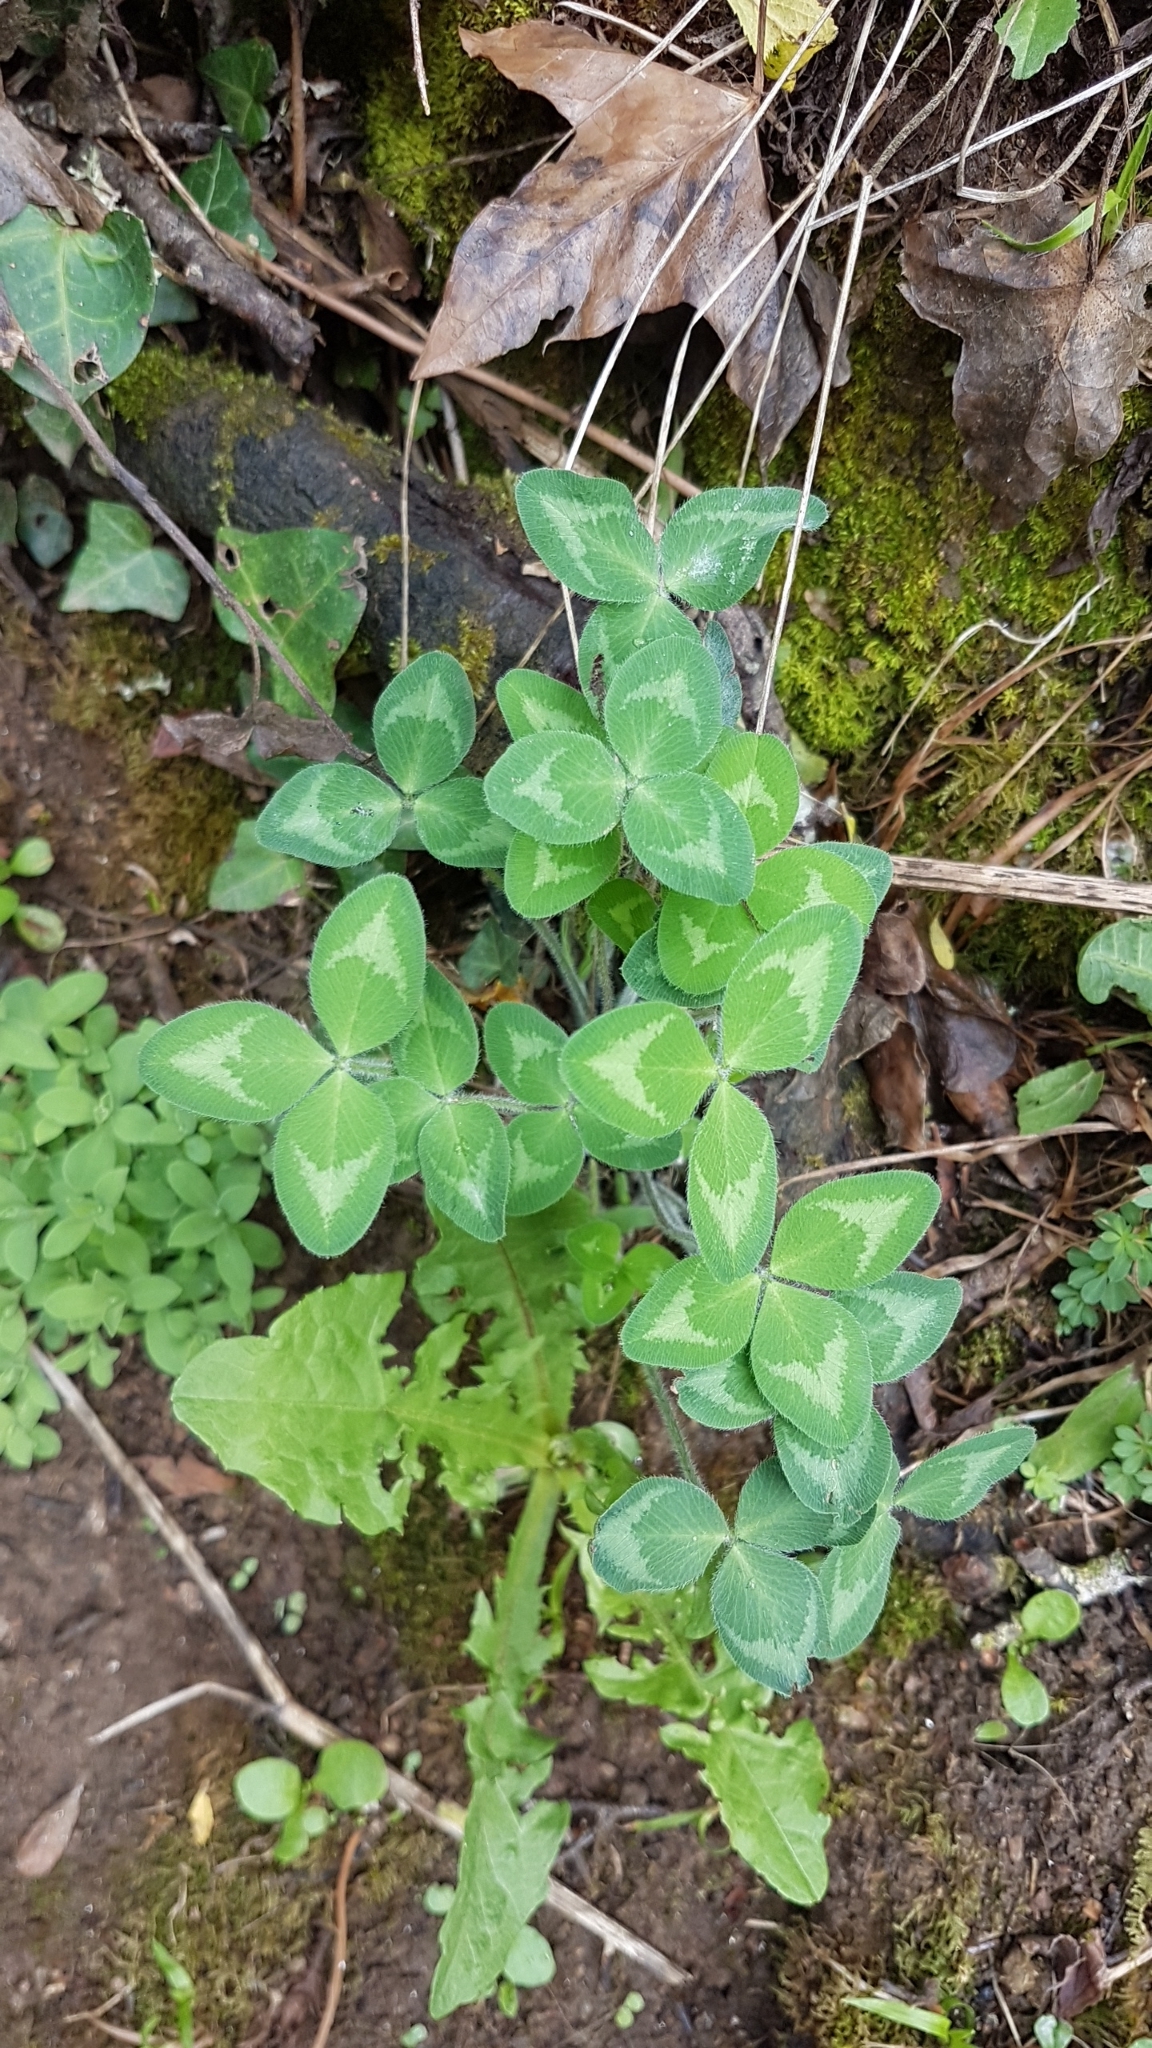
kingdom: Plantae
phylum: Tracheophyta
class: Magnoliopsida
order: Fabales
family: Fabaceae
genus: Trifolium
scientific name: Trifolium pratense
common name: Red clover
